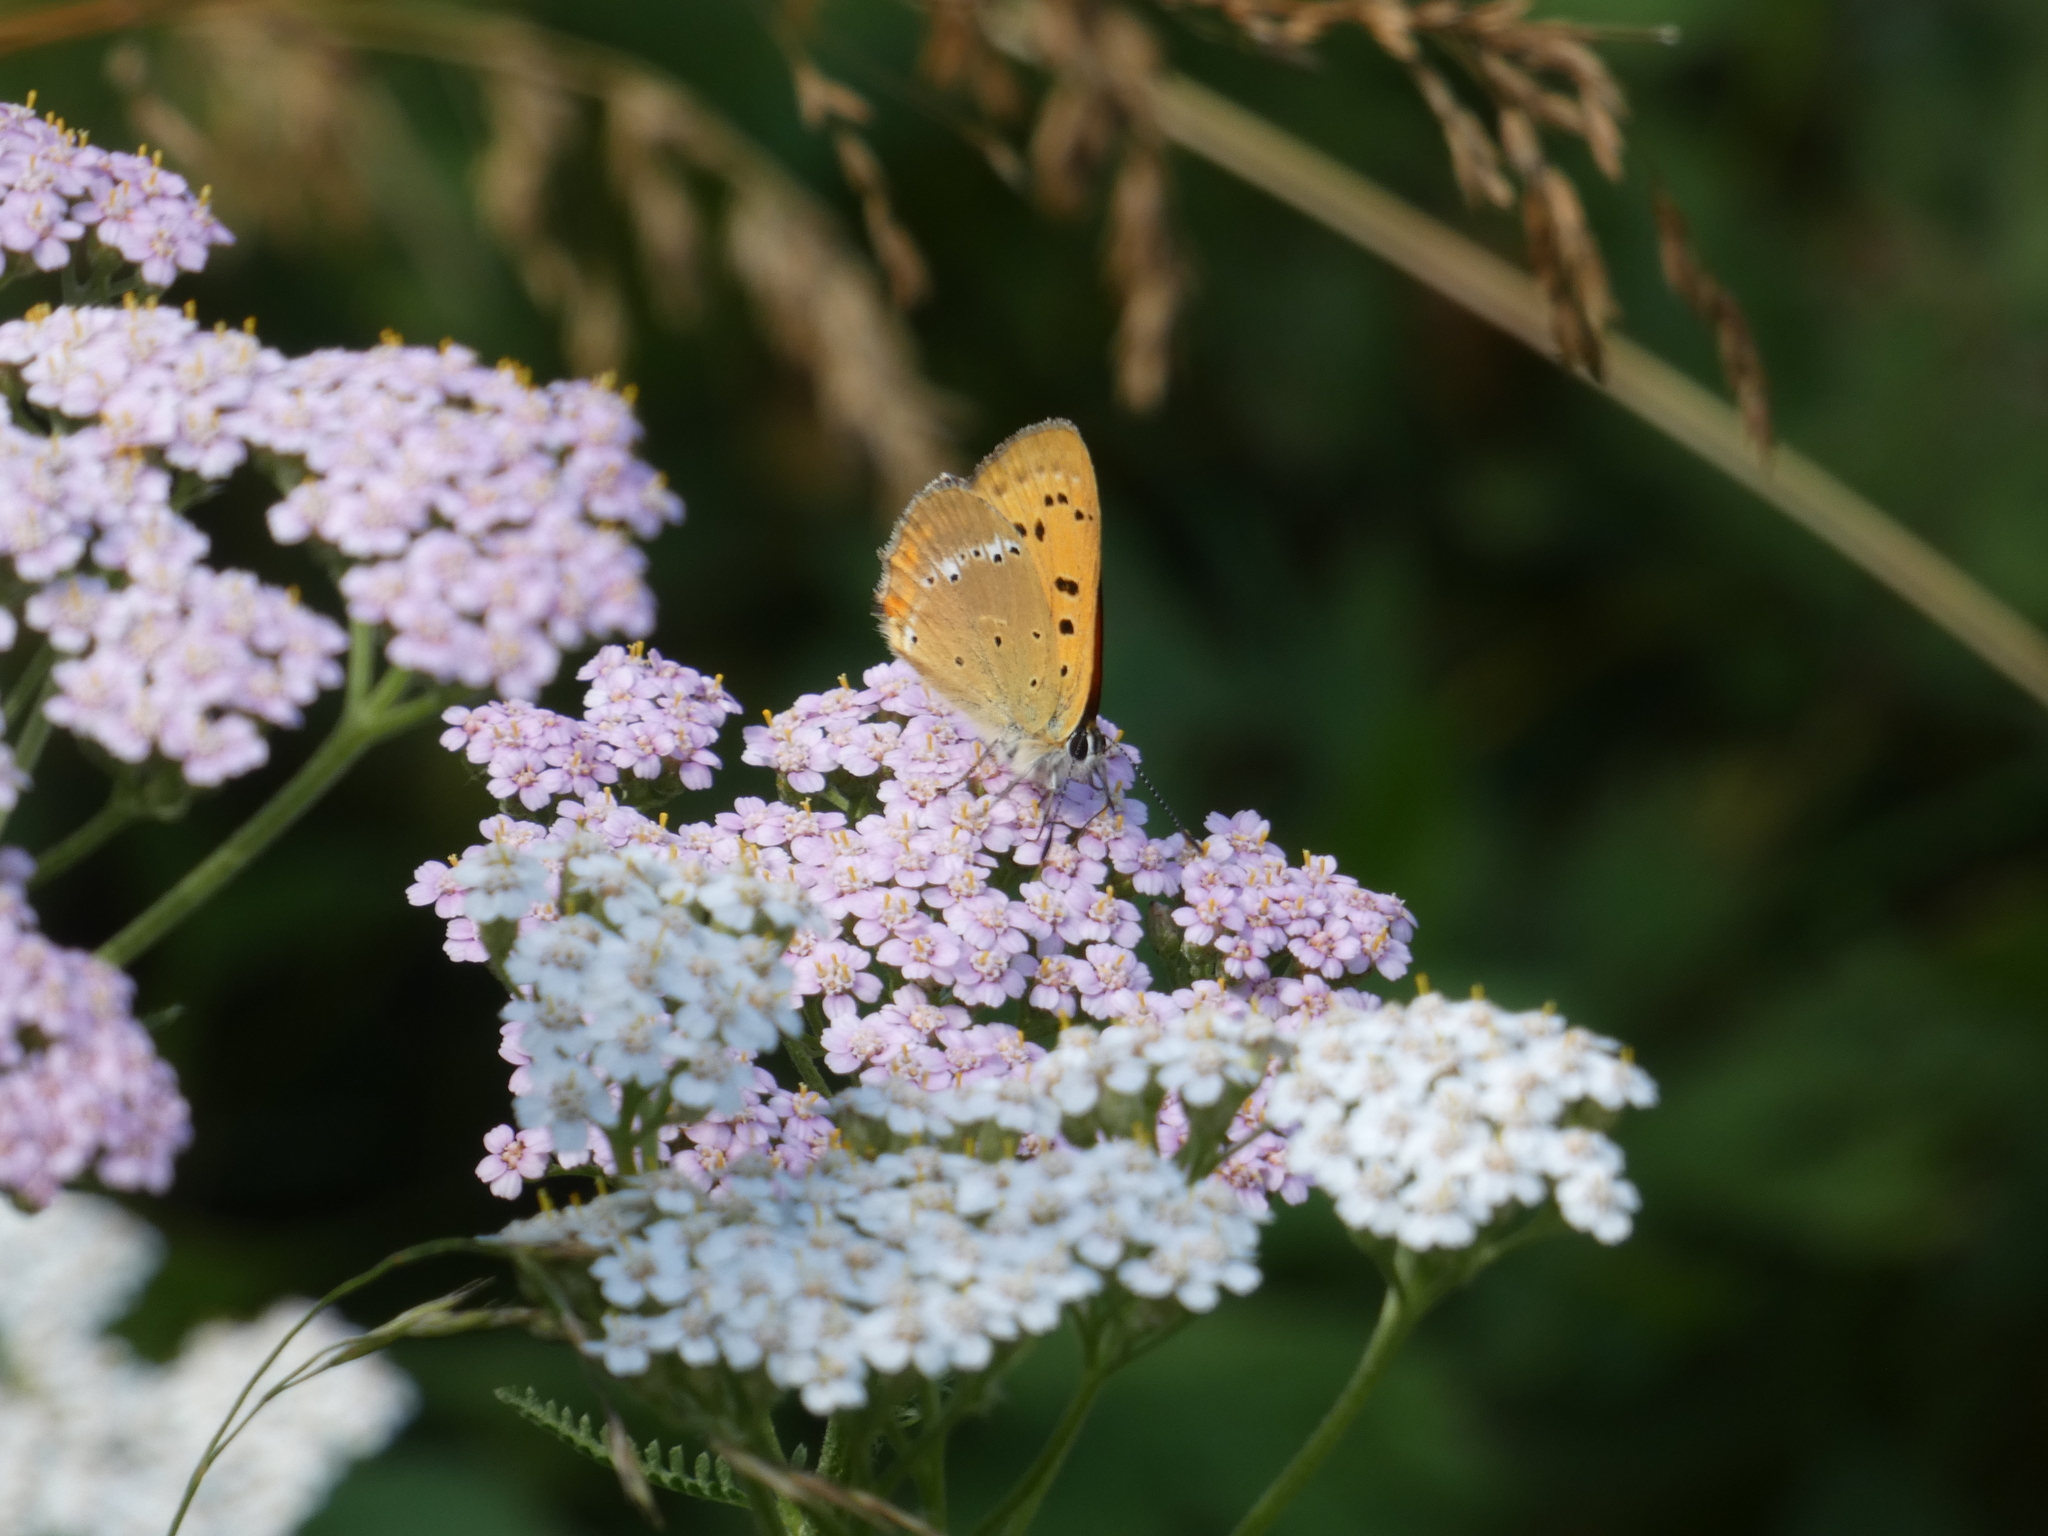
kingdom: Animalia
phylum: Arthropoda
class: Insecta
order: Lepidoptera
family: Lycaenidae
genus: Lycaena
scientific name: Lycaena virgaureae
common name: Scarce copper
